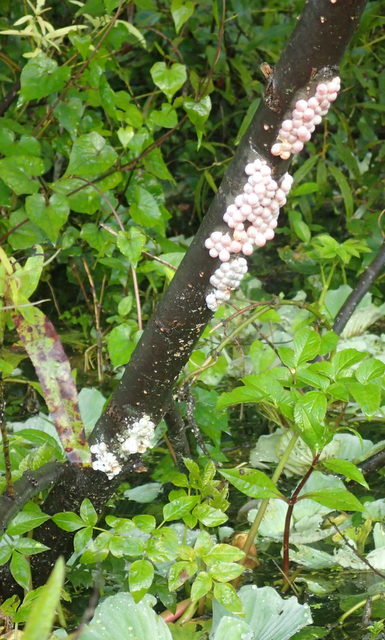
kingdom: Animalia
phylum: Mollusca
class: Gastropoda
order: Architaenioglossa
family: Ampullariidae
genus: Pomacea
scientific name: Pomacea paludosa
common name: Florida applesnail
